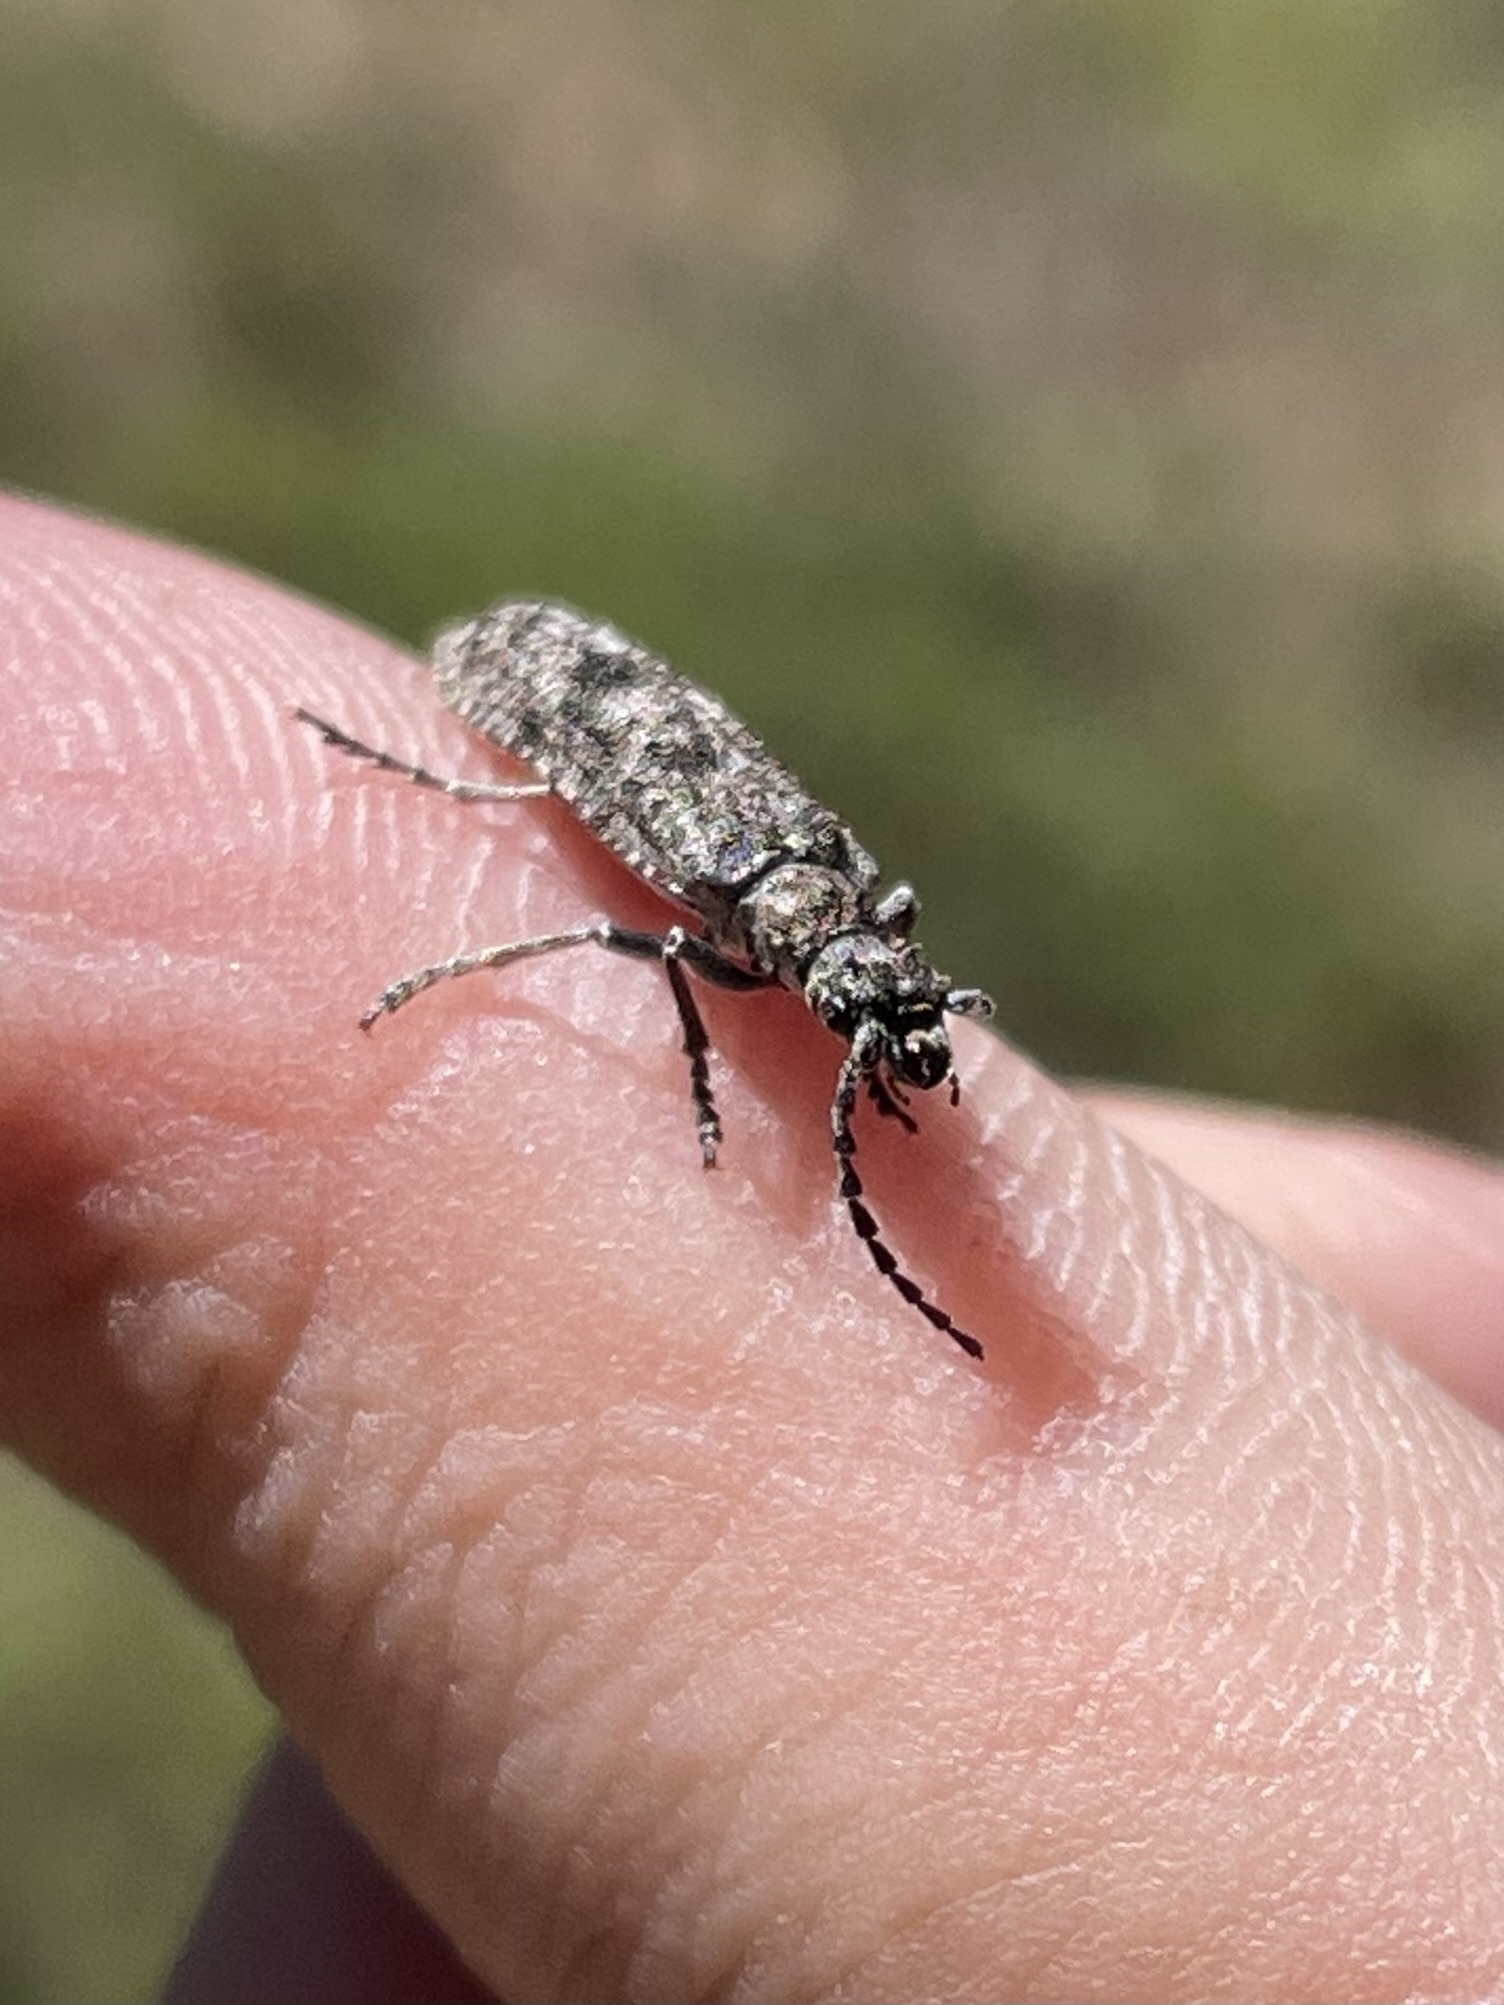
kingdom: Animalia
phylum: Arthropoda
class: Insecta
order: Coleoptera
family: Cupedidae
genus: Priacma
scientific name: Priacma serrata
